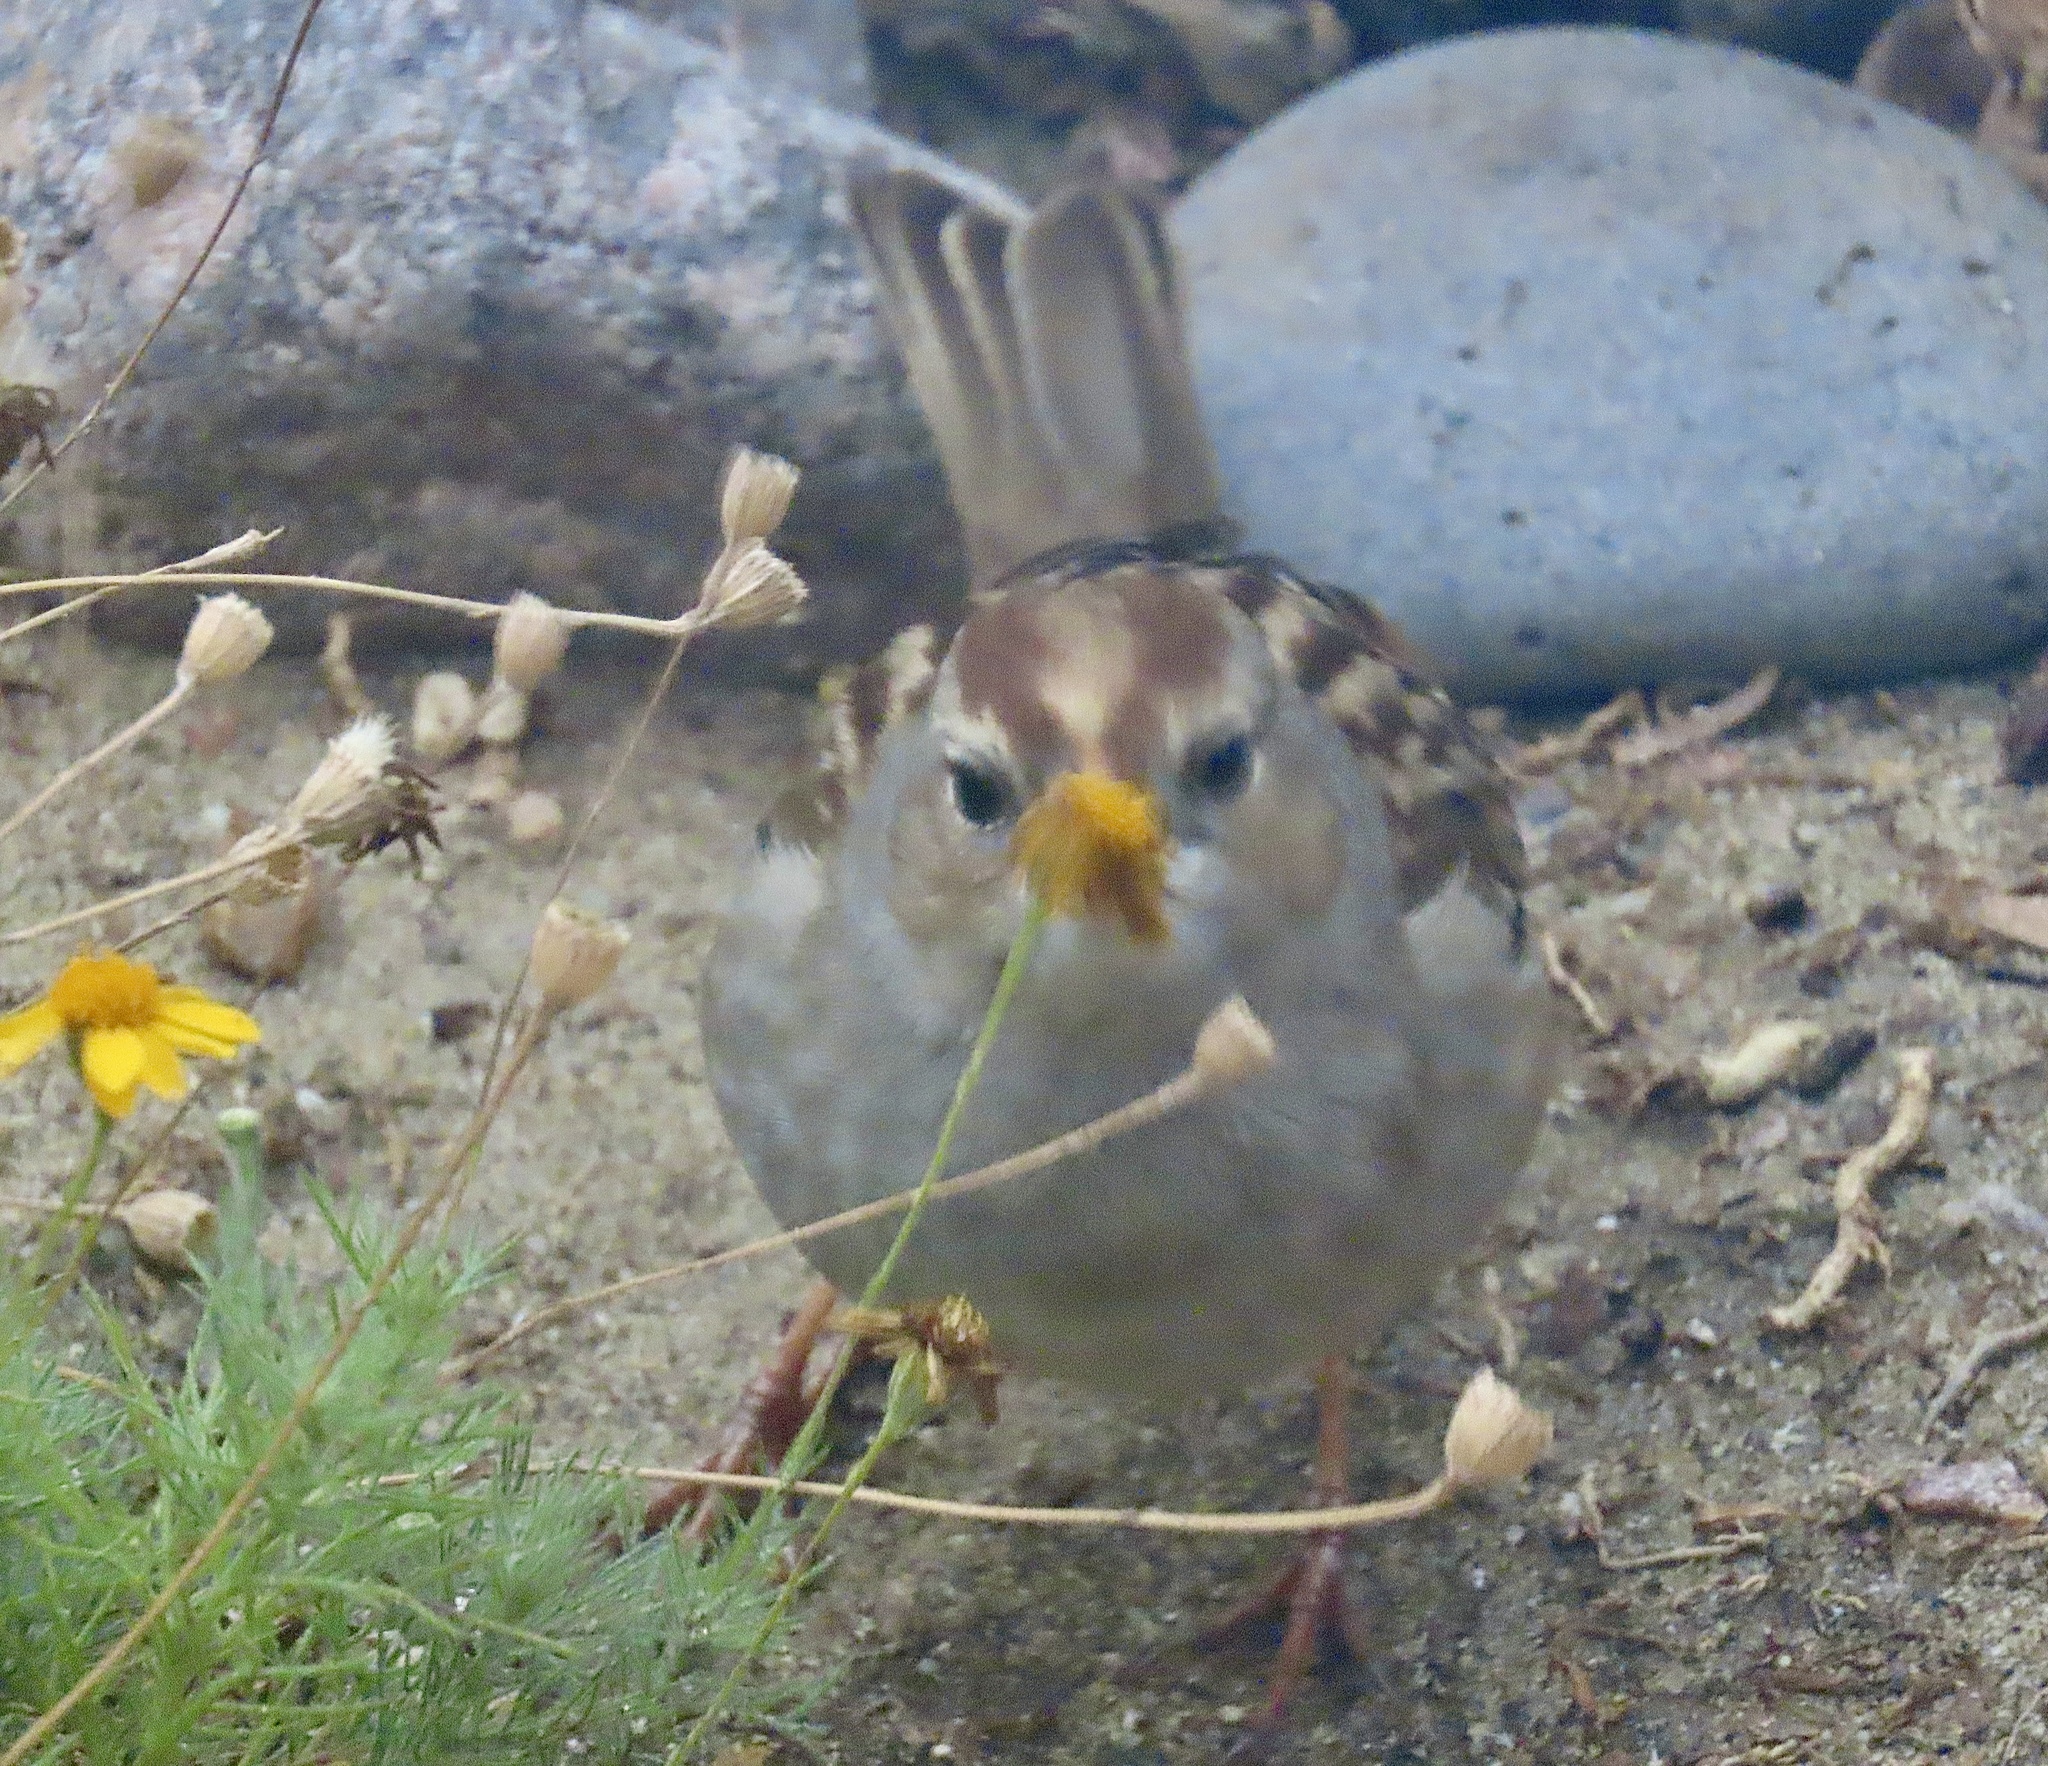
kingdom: Animalia
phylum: Chordata
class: Aves
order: Passeriformes
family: Passerellidae
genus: Zonotrichia
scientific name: Zonotrichia leucophrys
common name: White-crowned sparrow
